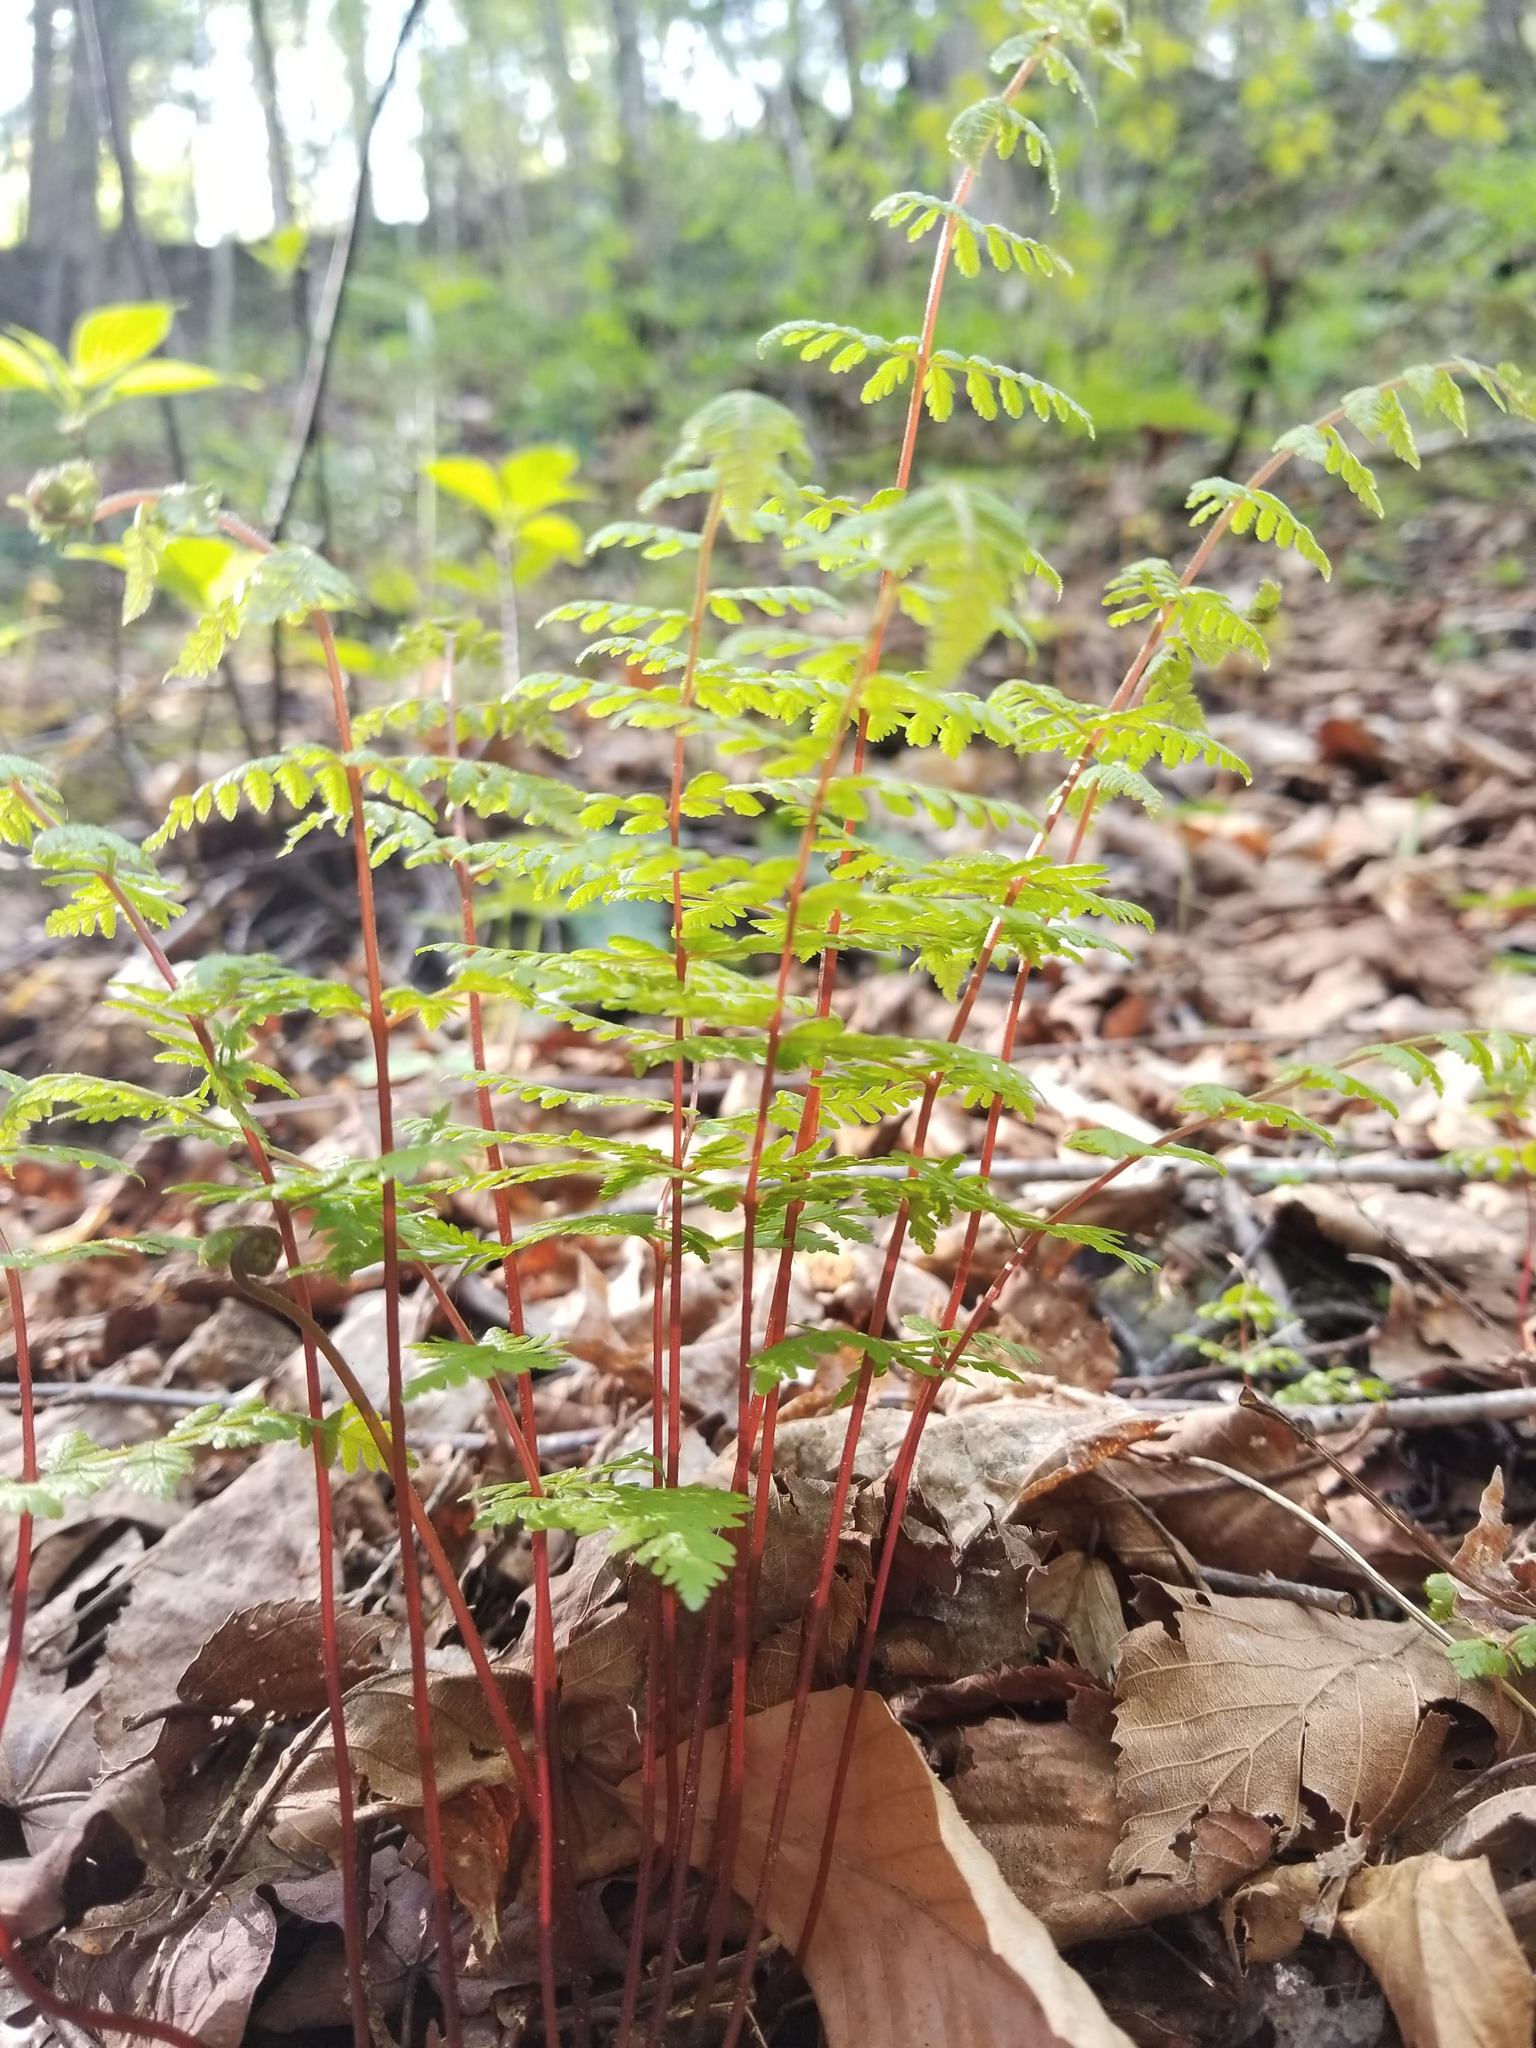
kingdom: Plantae
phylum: Tracheophyta
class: Polypodiopsida
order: Polypodiales
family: Cystopteridaceae
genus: Cystopteris
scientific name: Cystopteris bulbifera
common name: Bulblet bladder fern
